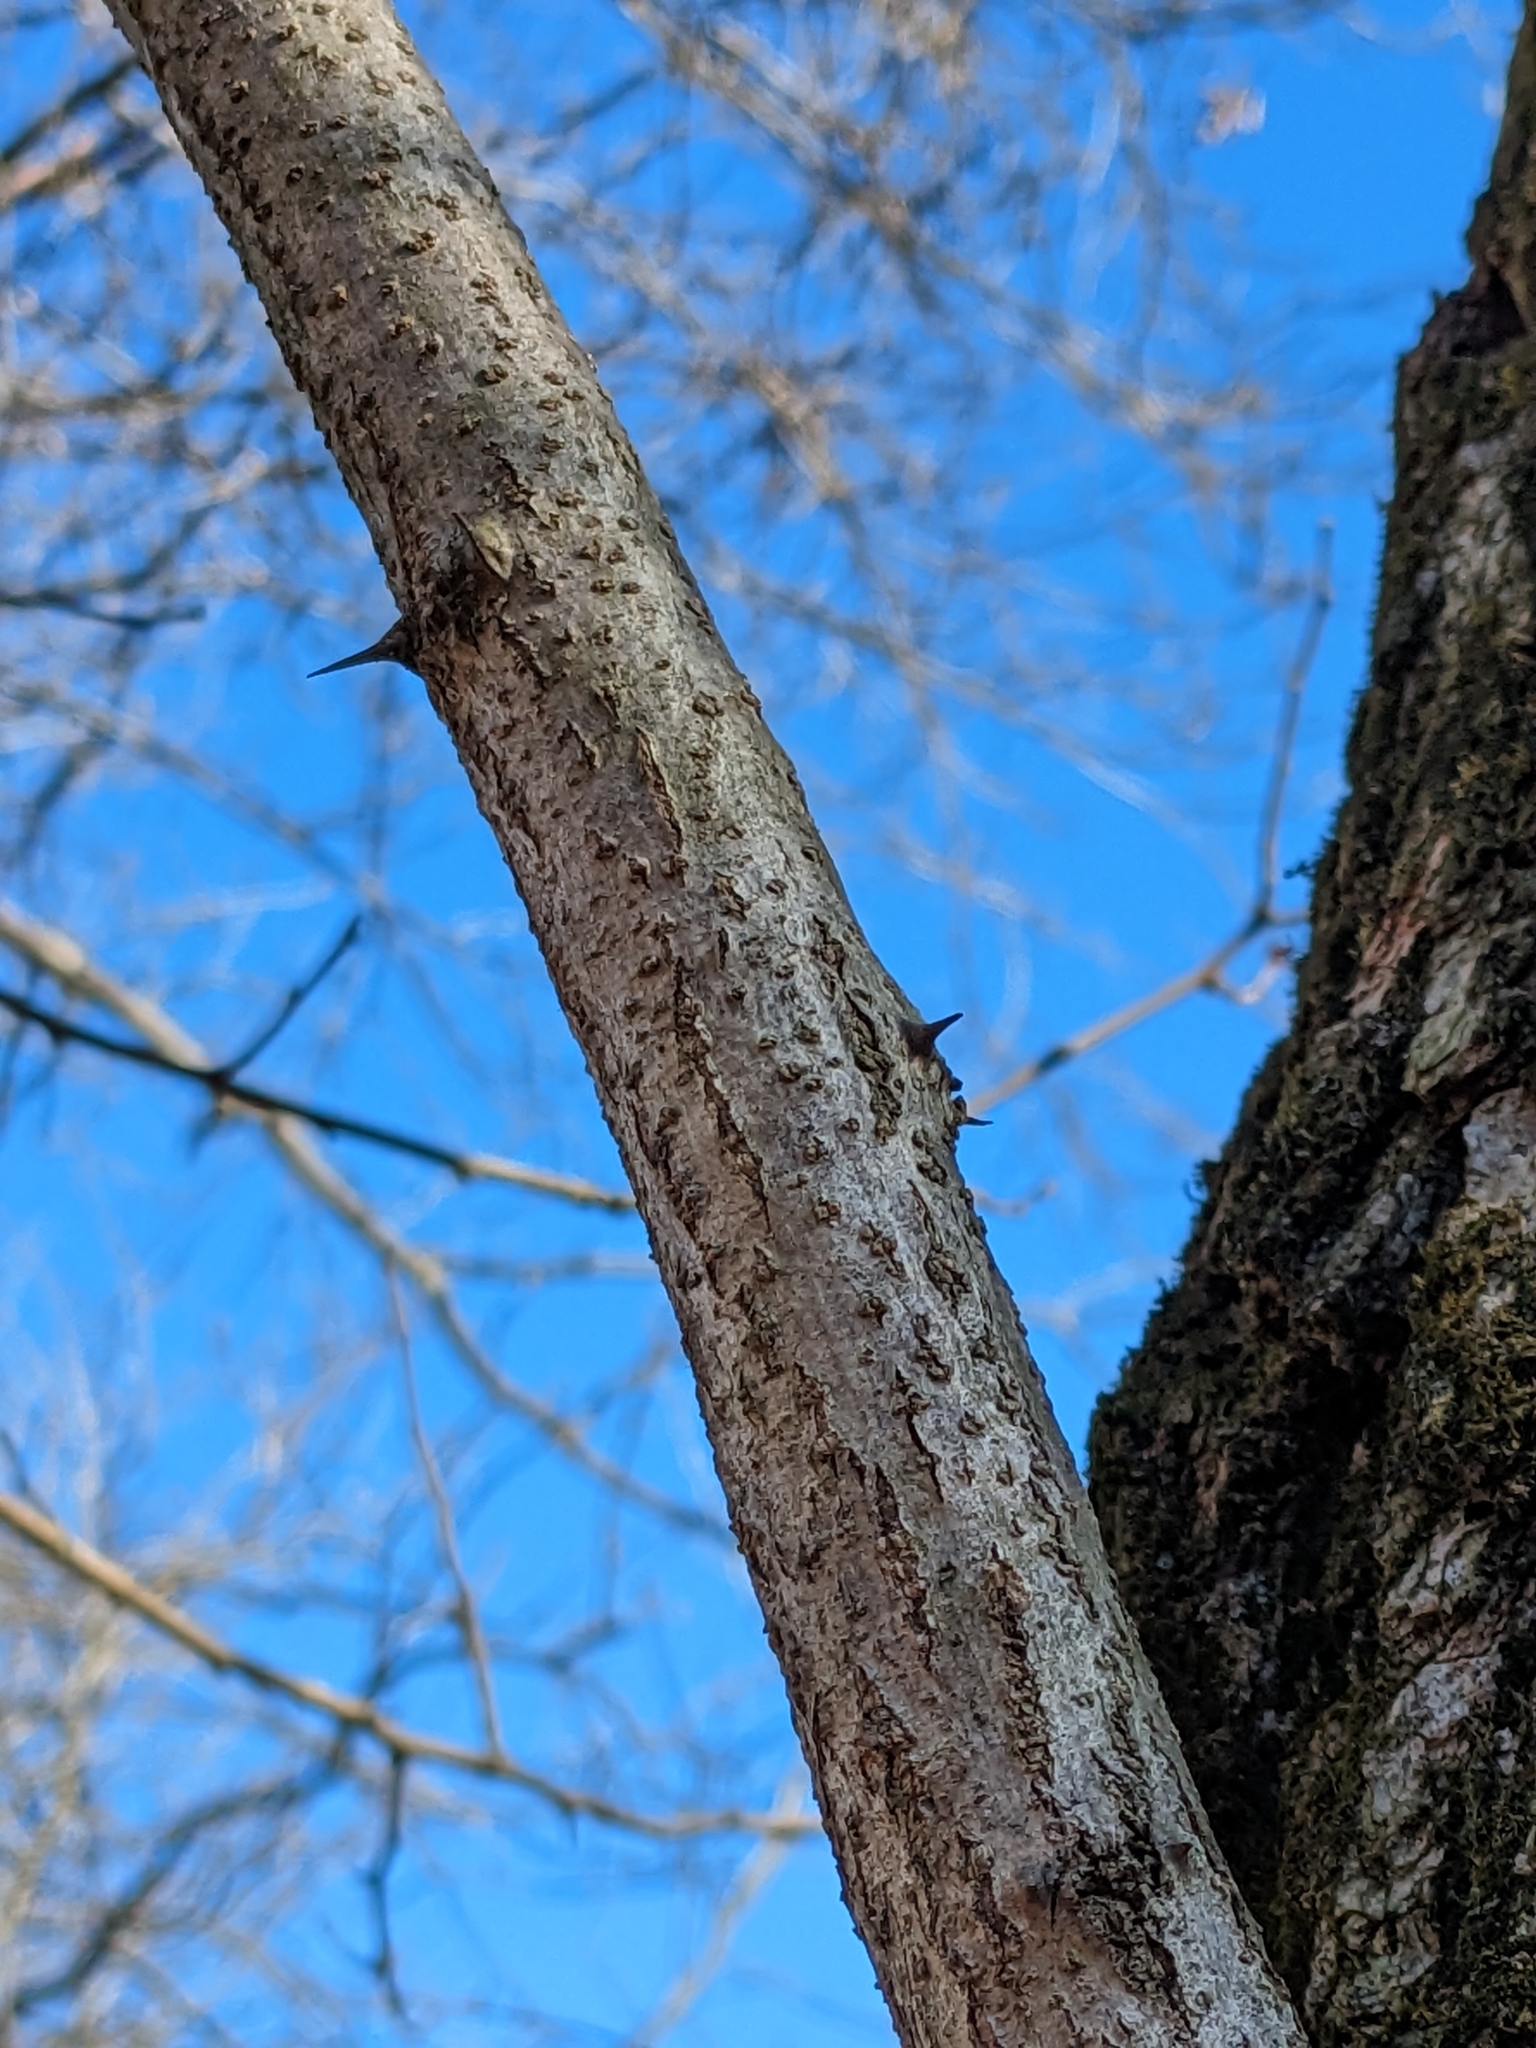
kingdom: Plantae
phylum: Tracheophyta
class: Magnoliopsida
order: Fabales
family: Fabaceae
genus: Robinia
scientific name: Robinia pseudoacacia
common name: Black locust
